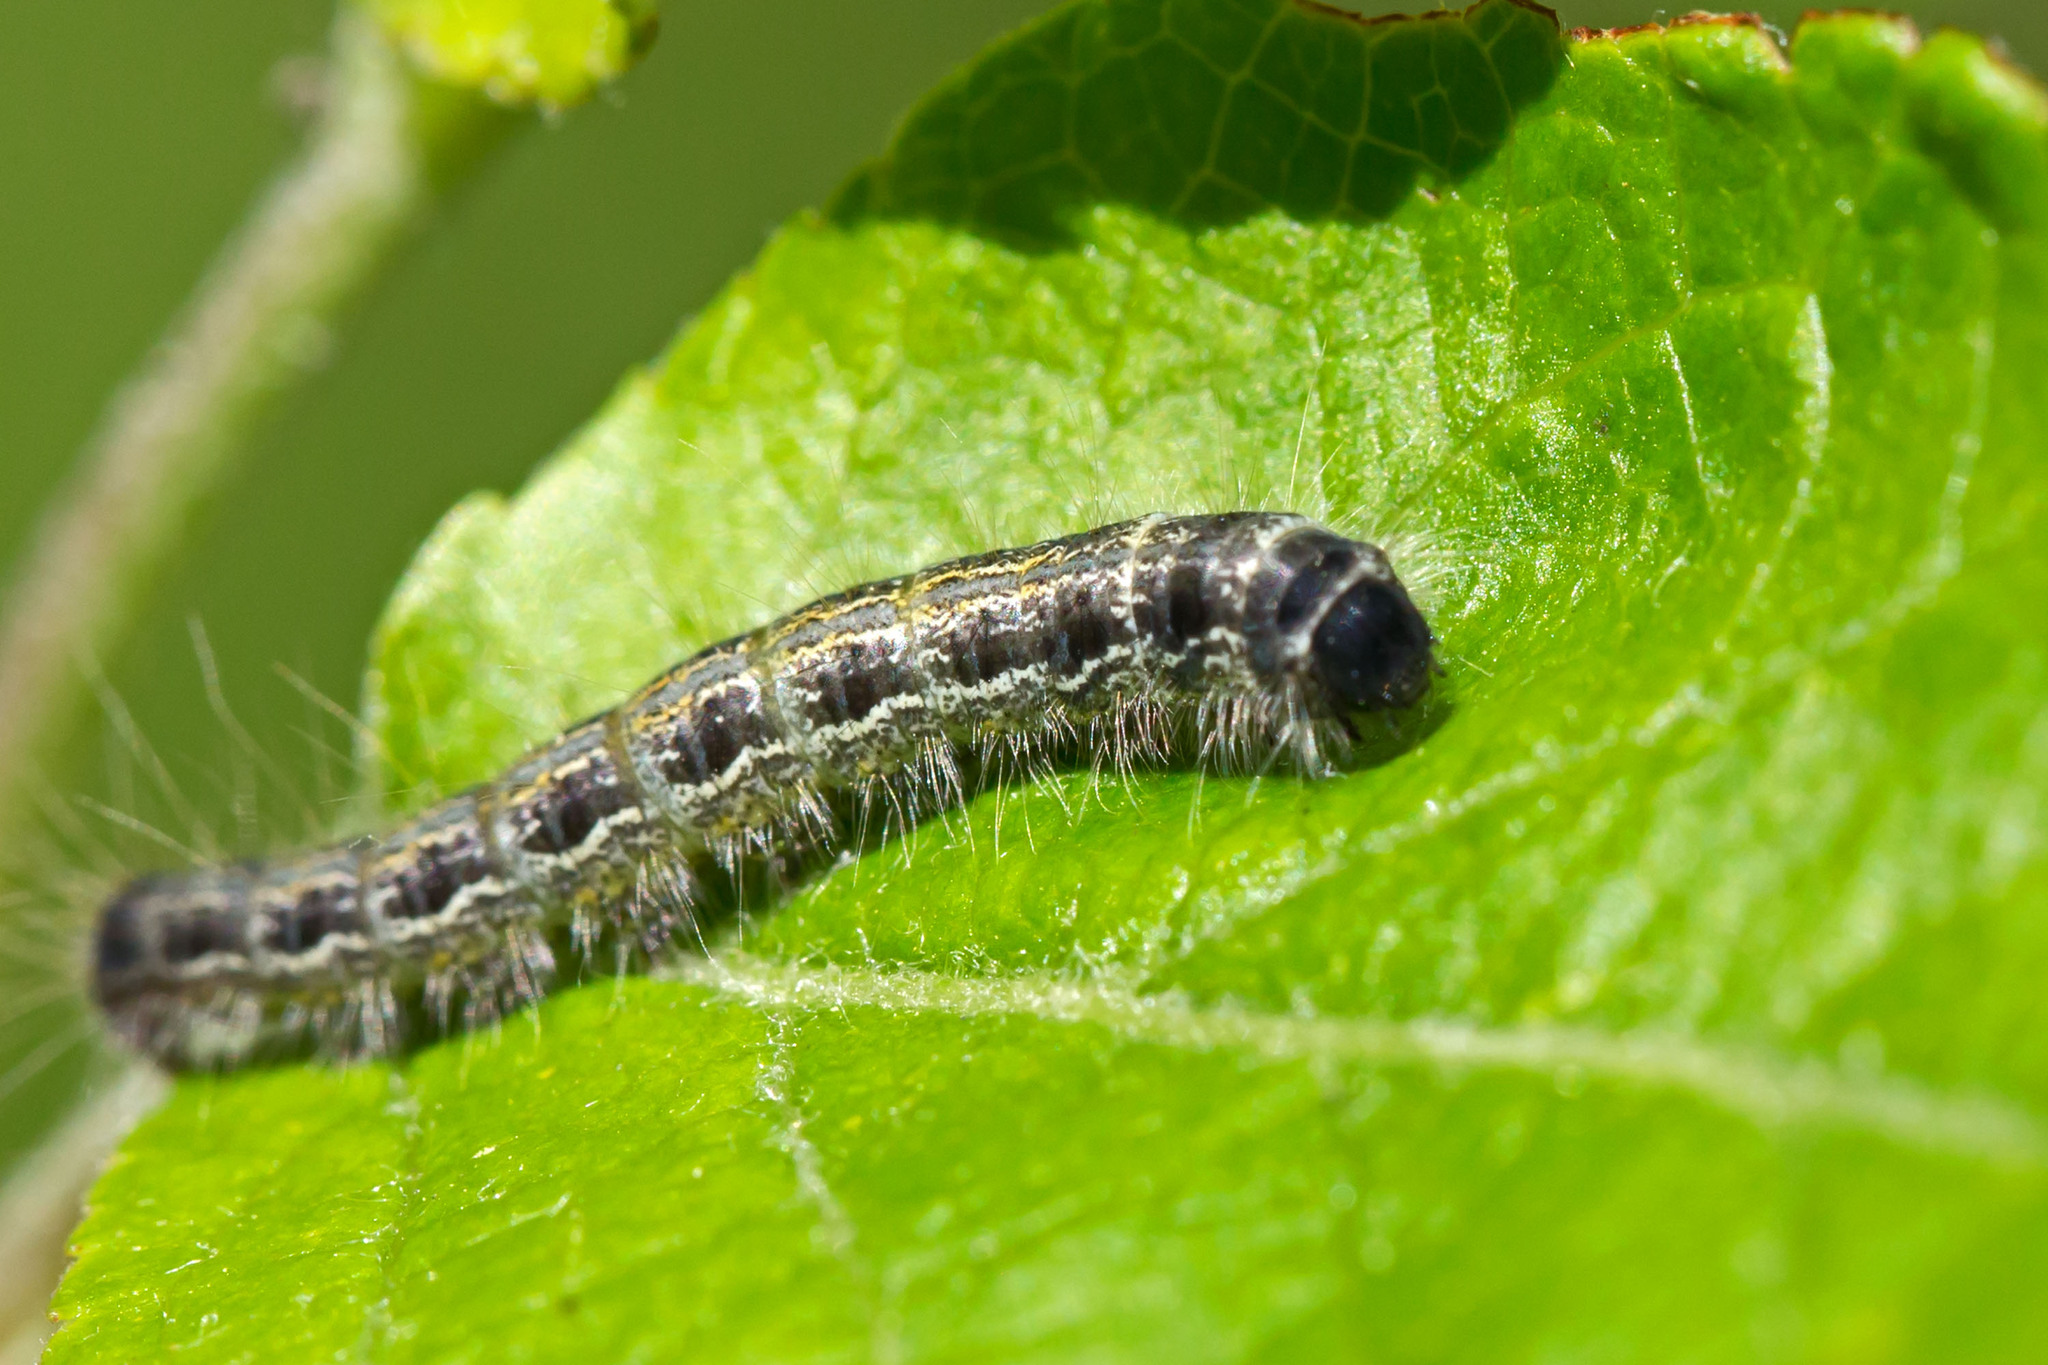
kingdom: Animalia
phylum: Arthropoda
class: Insecta
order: Lepidoptera
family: Lasiocampidae
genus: Malacosoma
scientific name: Malacosoma americana
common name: Eastern tent caterpillar moth
